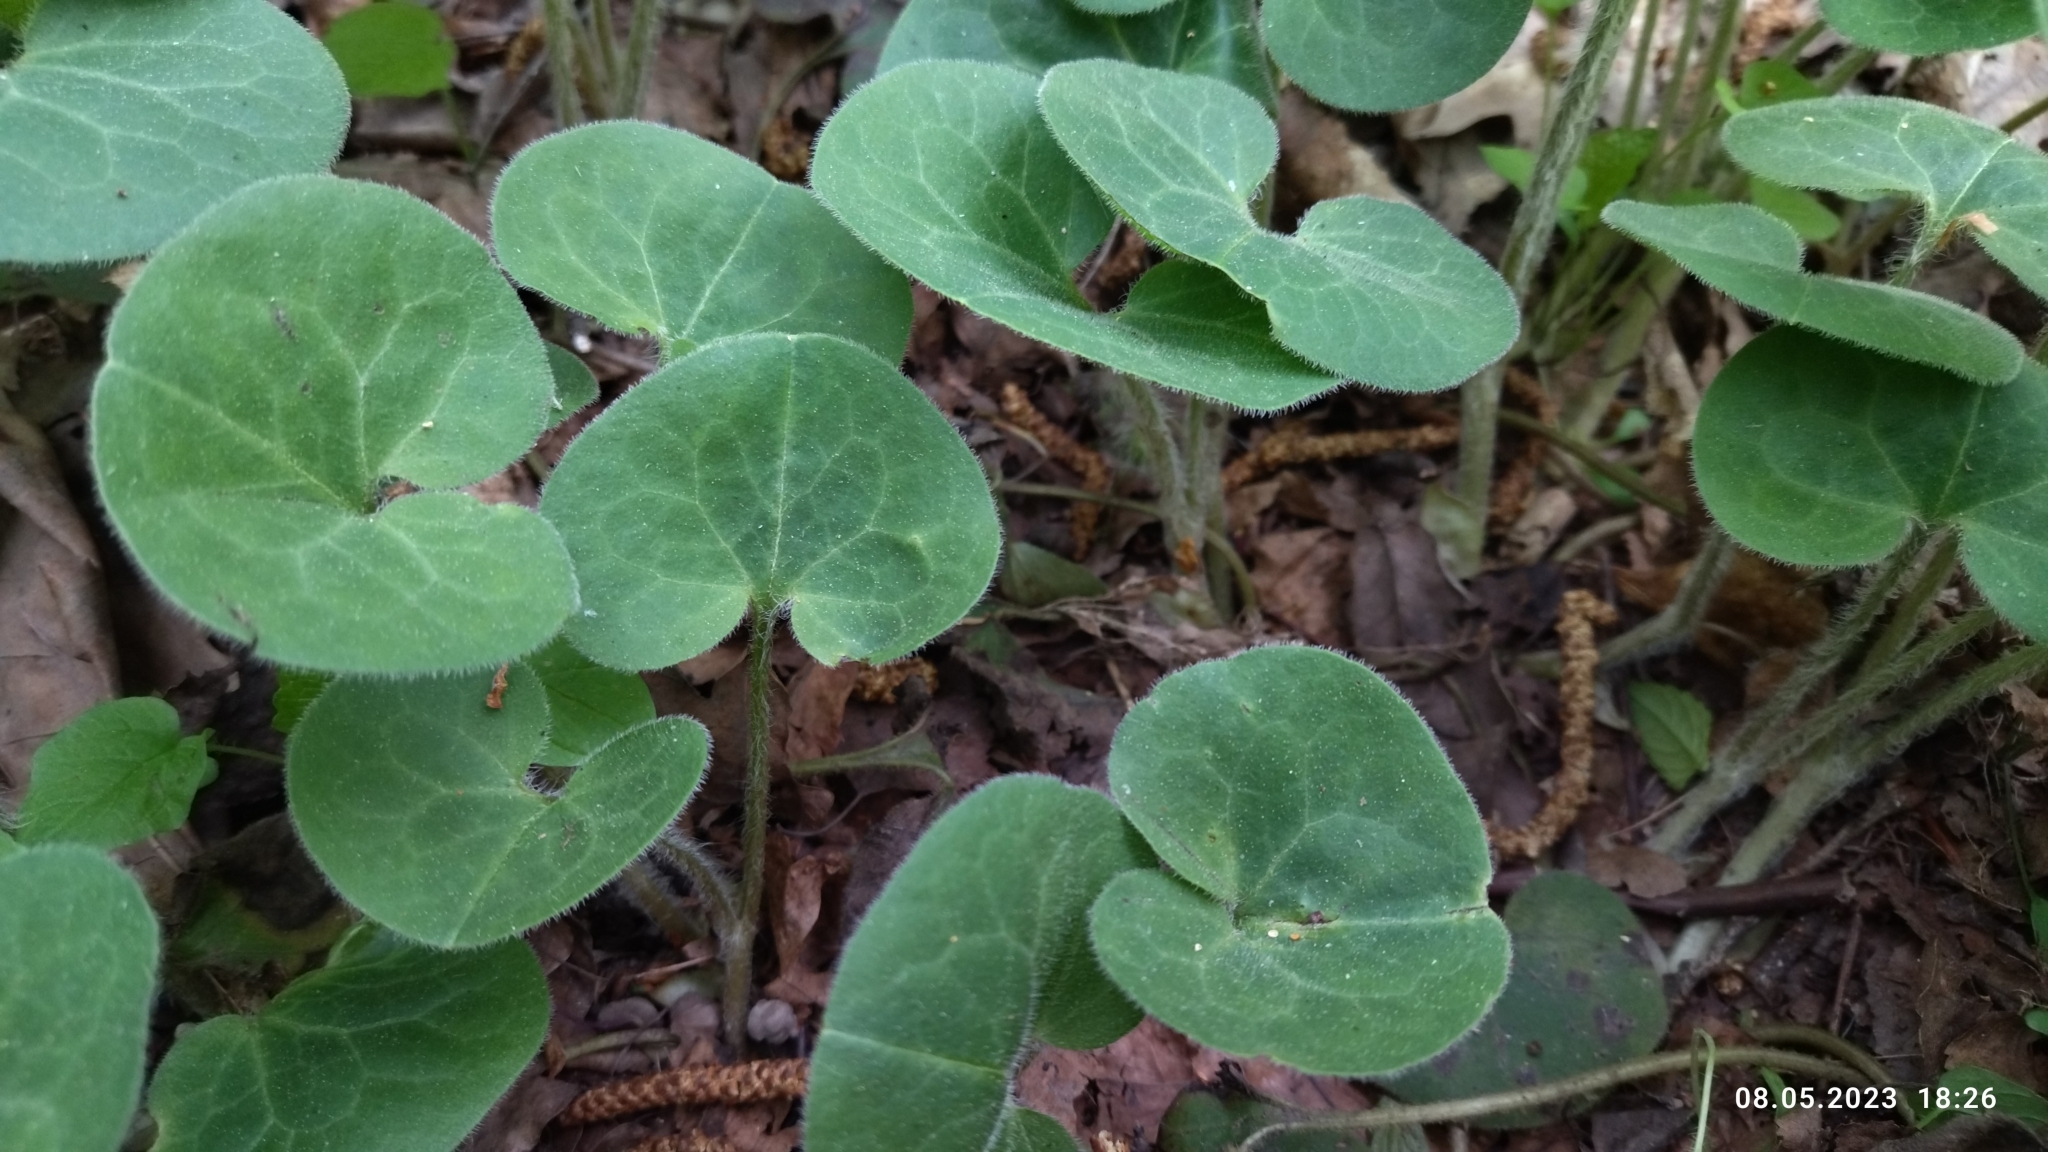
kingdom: Plantae
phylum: Tracheophyta
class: Magnoliopsida
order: Piperales
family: Aristolochiaceae
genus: Asarum
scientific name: Asarum europaeum
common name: Asarabacca
